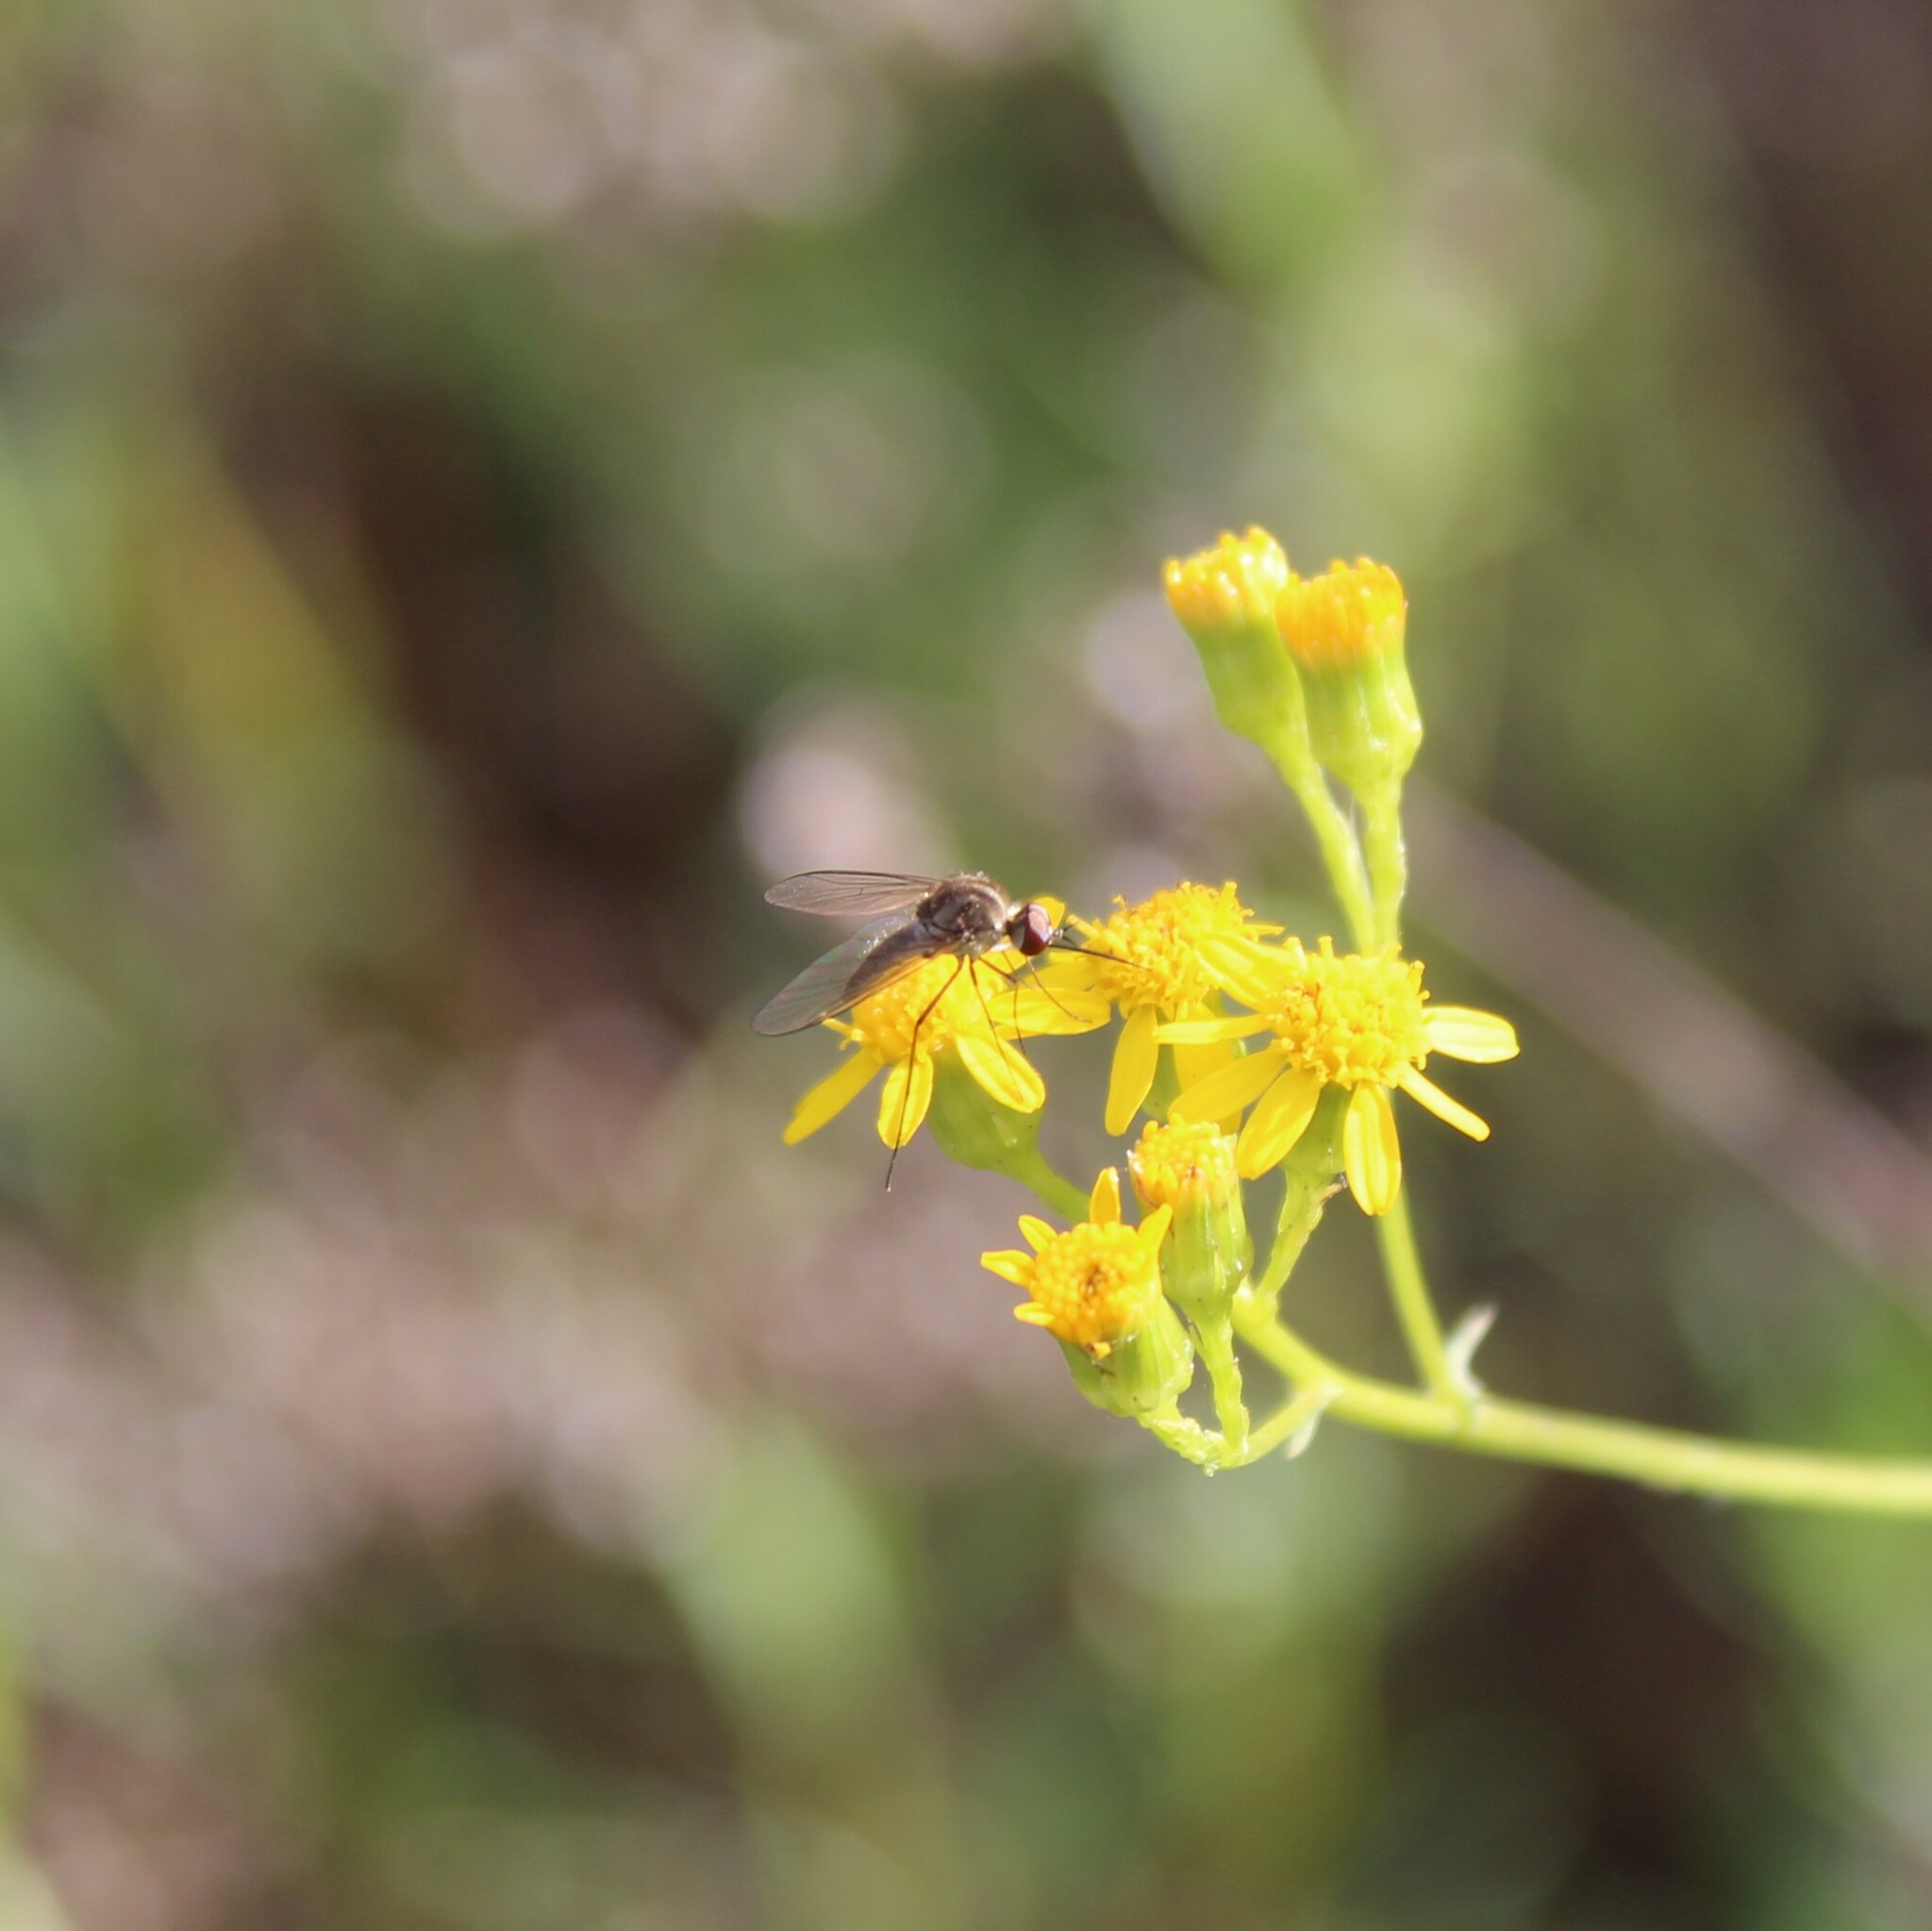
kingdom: Plantae
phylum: Tracheophyta
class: Magnoliopsida
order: Asterales
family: Asteraceae
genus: Senecio
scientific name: Senecio linearifolius
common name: Fireweed groundsel
